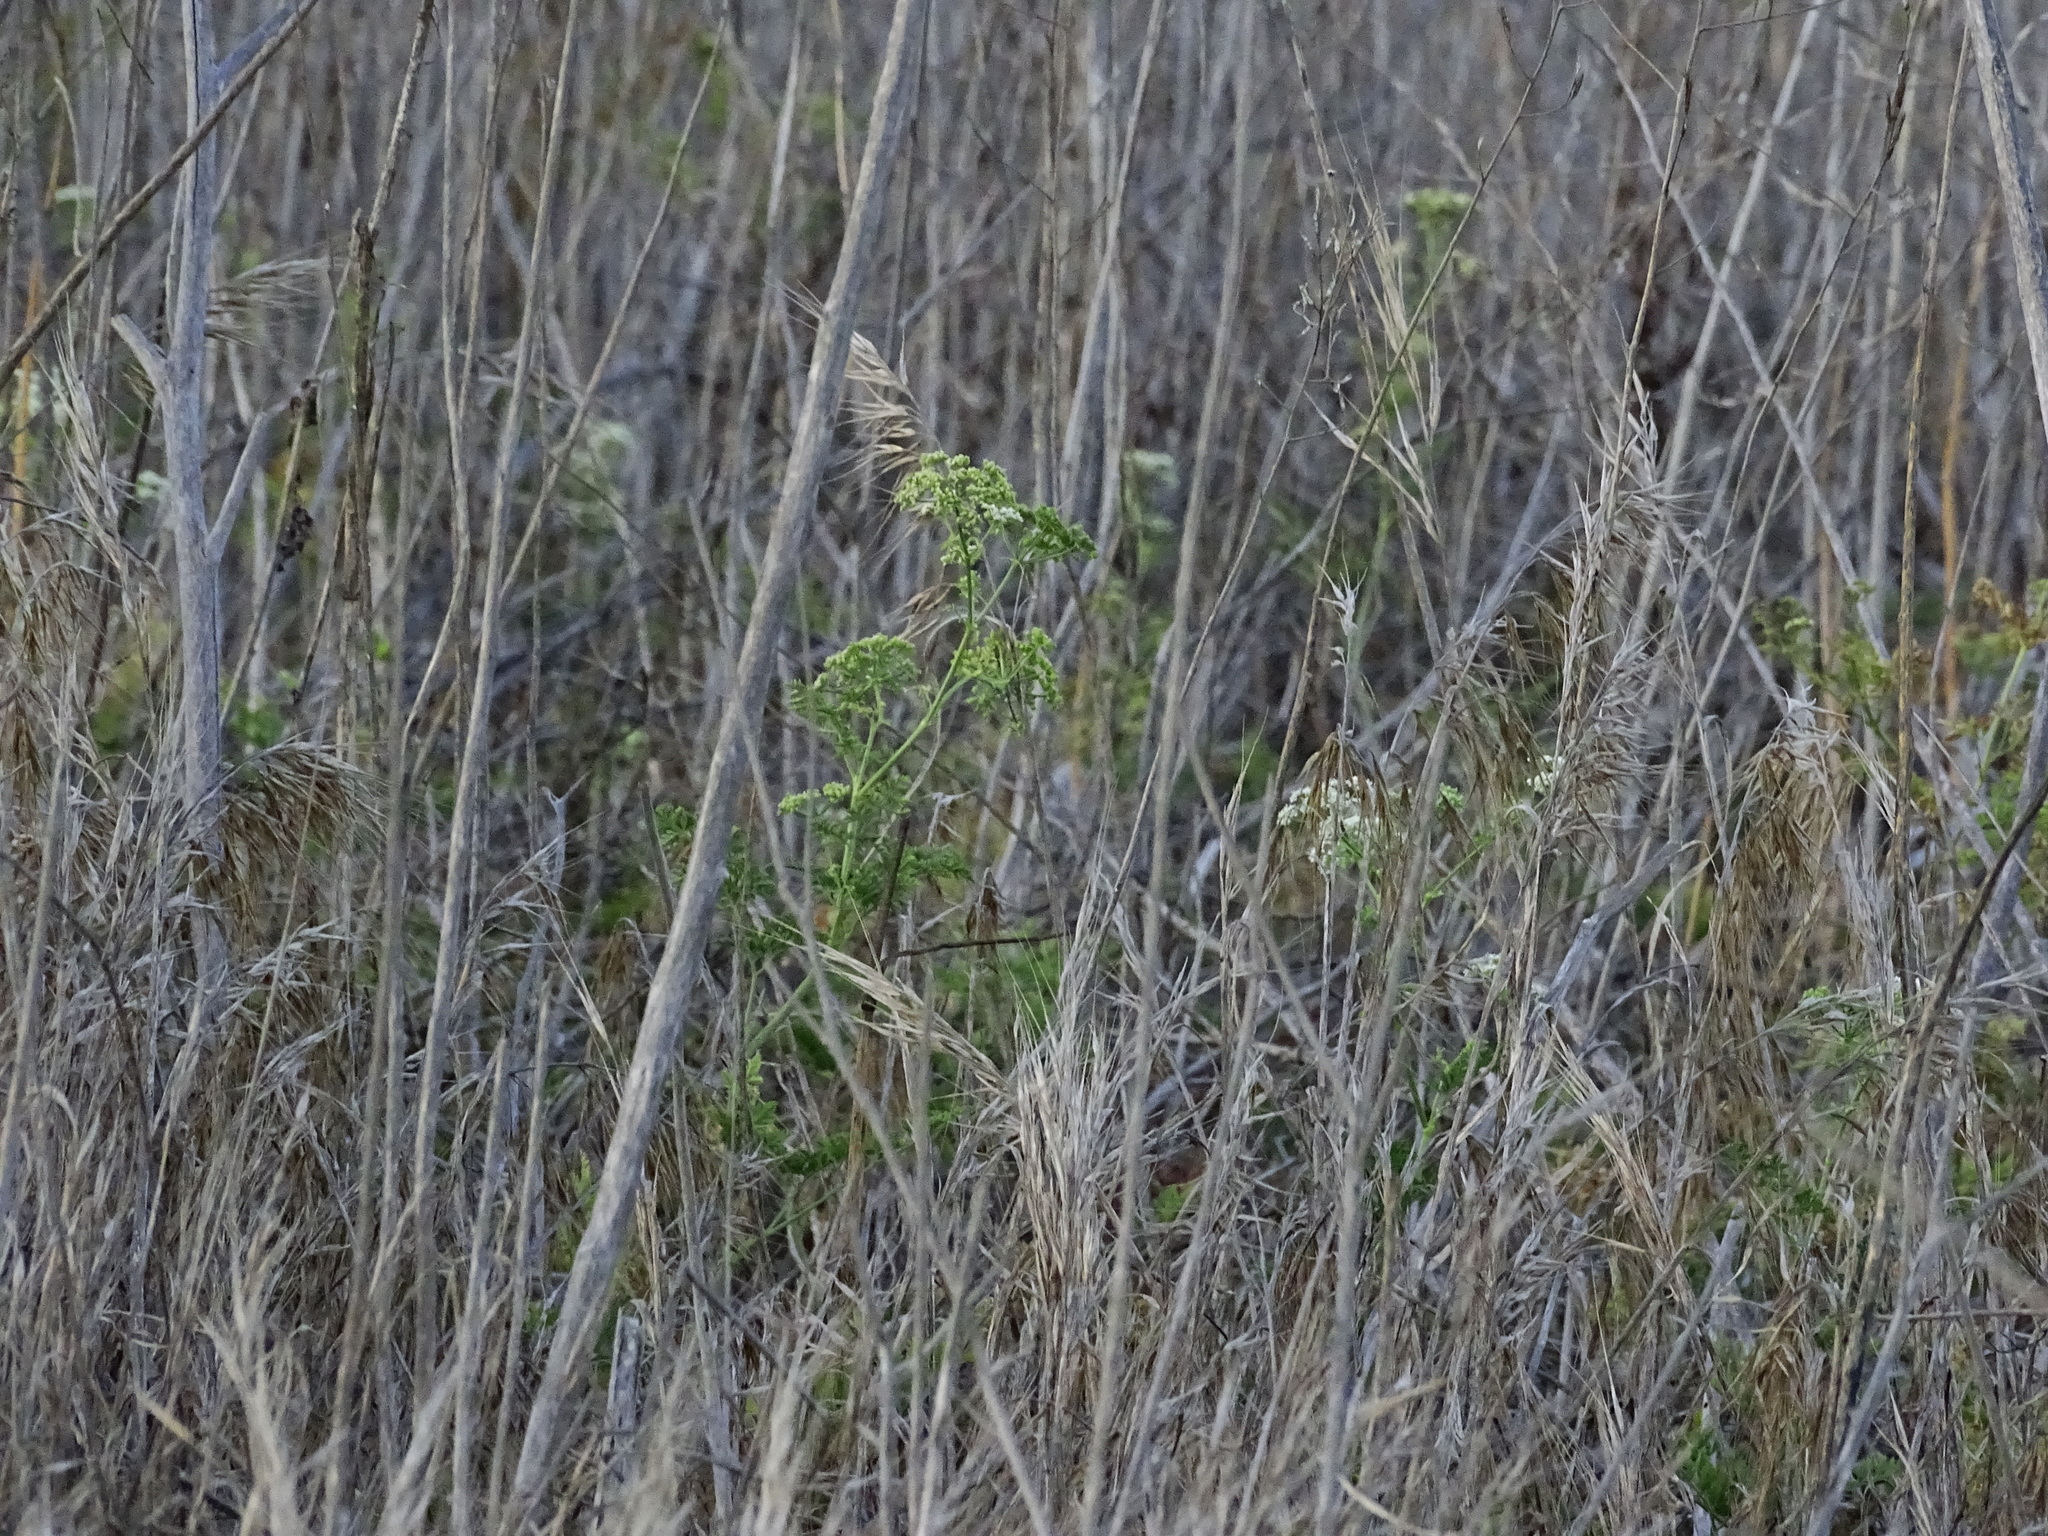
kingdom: Plantae
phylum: Tracheophyta
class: Magnoliopsida
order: Apiales
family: Apiaceae
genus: Conium
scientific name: Conium maculatum
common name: Hemlock
